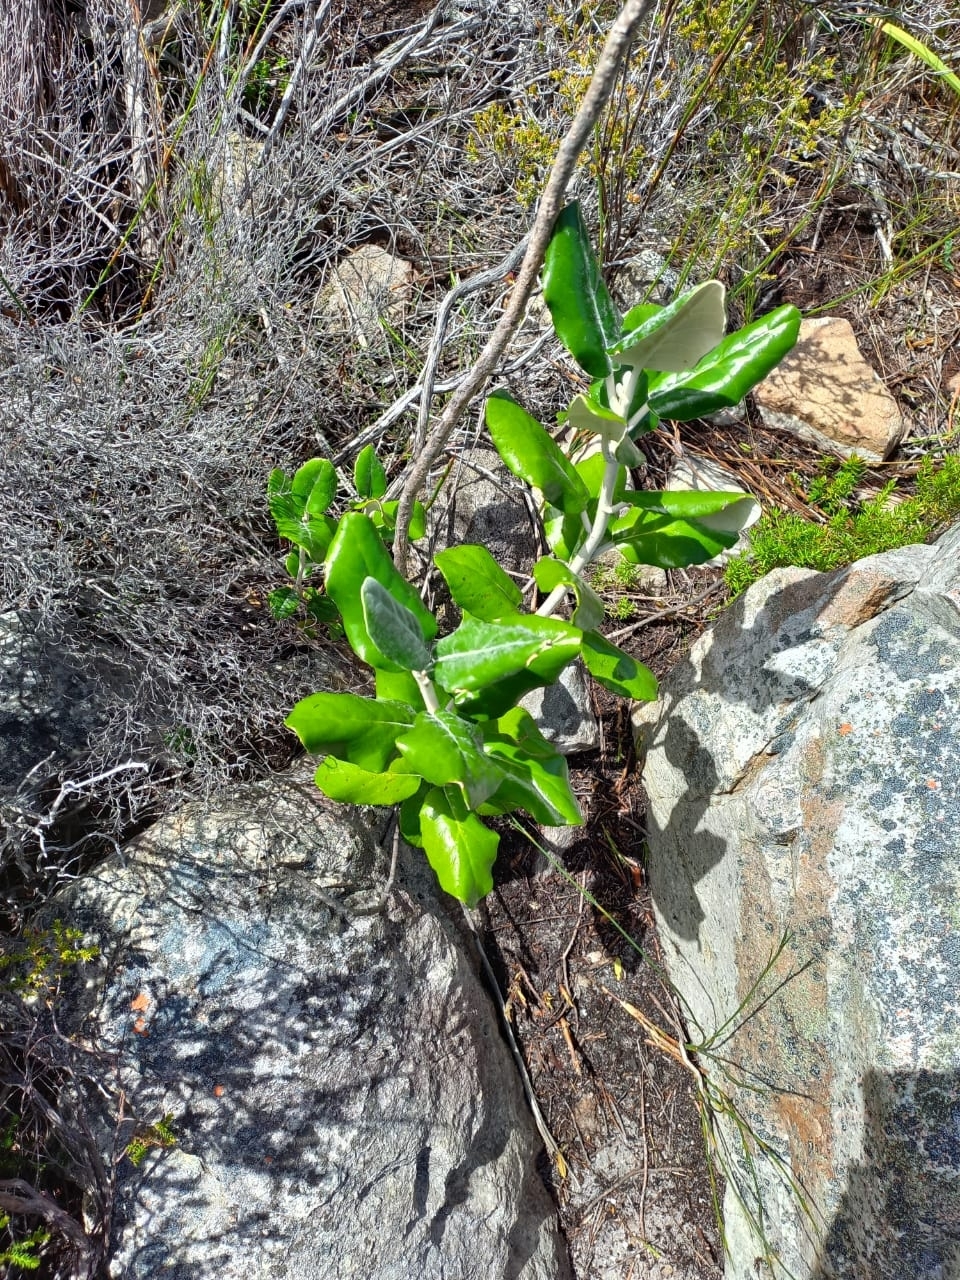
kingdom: Plantae
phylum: Tracheophyta
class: Magnoliopsida
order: Apiales
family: Apiaceae
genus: Hermas
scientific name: Hermas villosa
